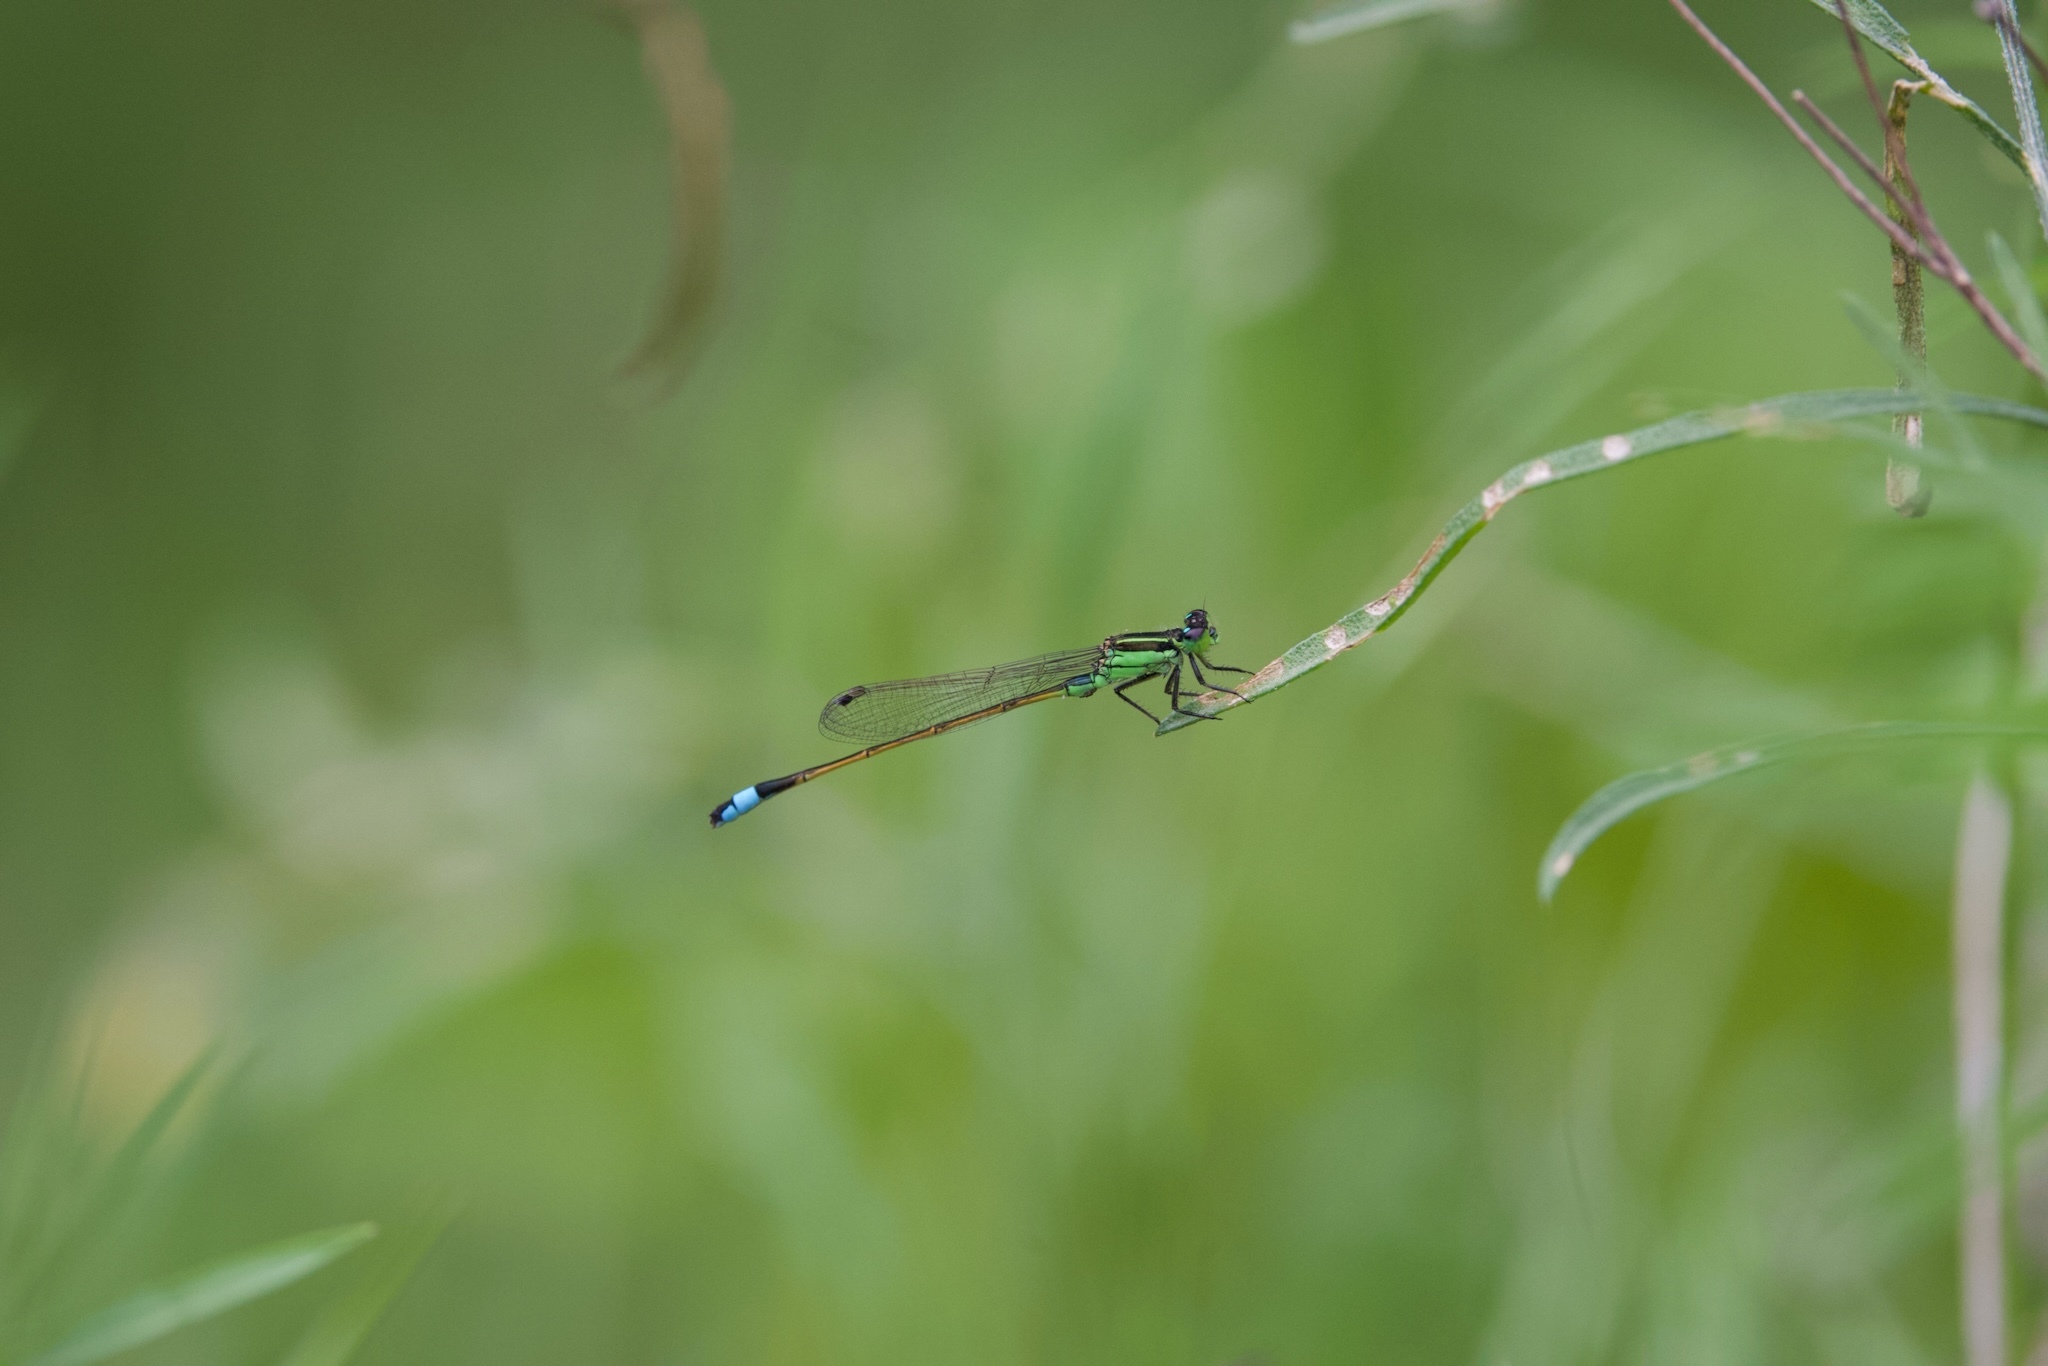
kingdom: Animalia
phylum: Arthropoda
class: Insecta
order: Odonata
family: Coenagrionidae
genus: Ischnura
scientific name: Ischnura ramburii
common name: Rambur's forktail
